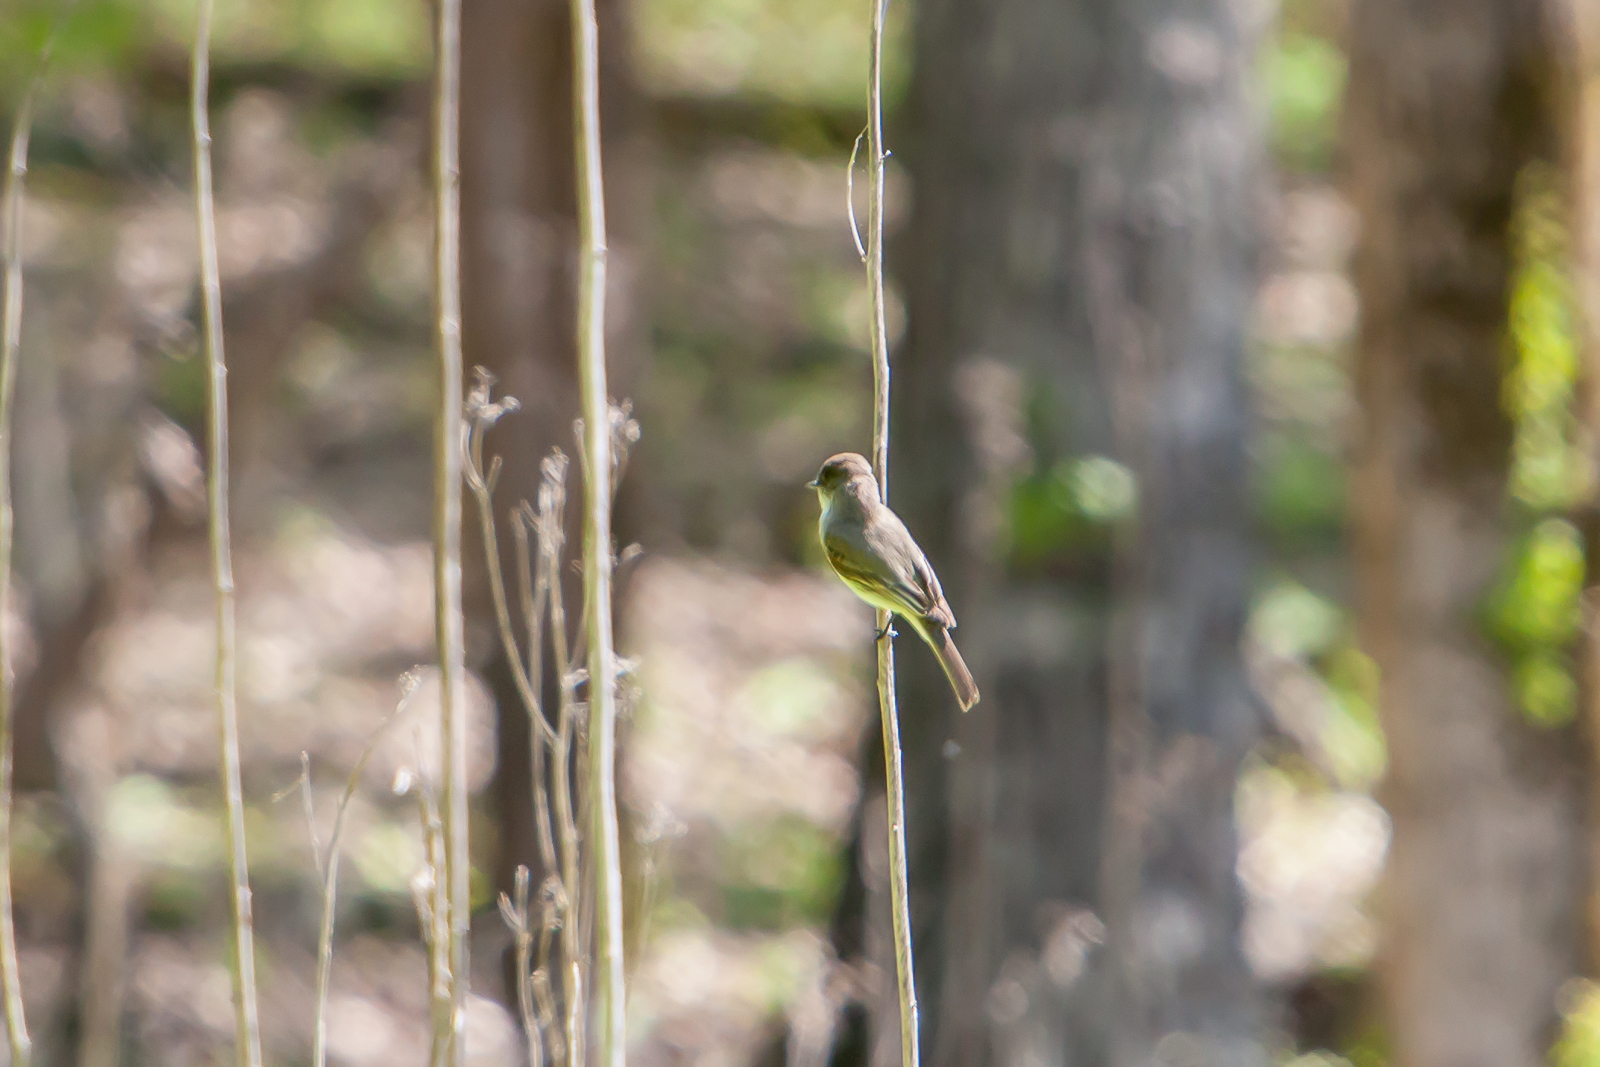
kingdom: Animalia
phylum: Chordata
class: Aves
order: Passeriformes
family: Tyrannidae
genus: Sayornis
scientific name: Sayornis phoebe
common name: Eastern phoebe
